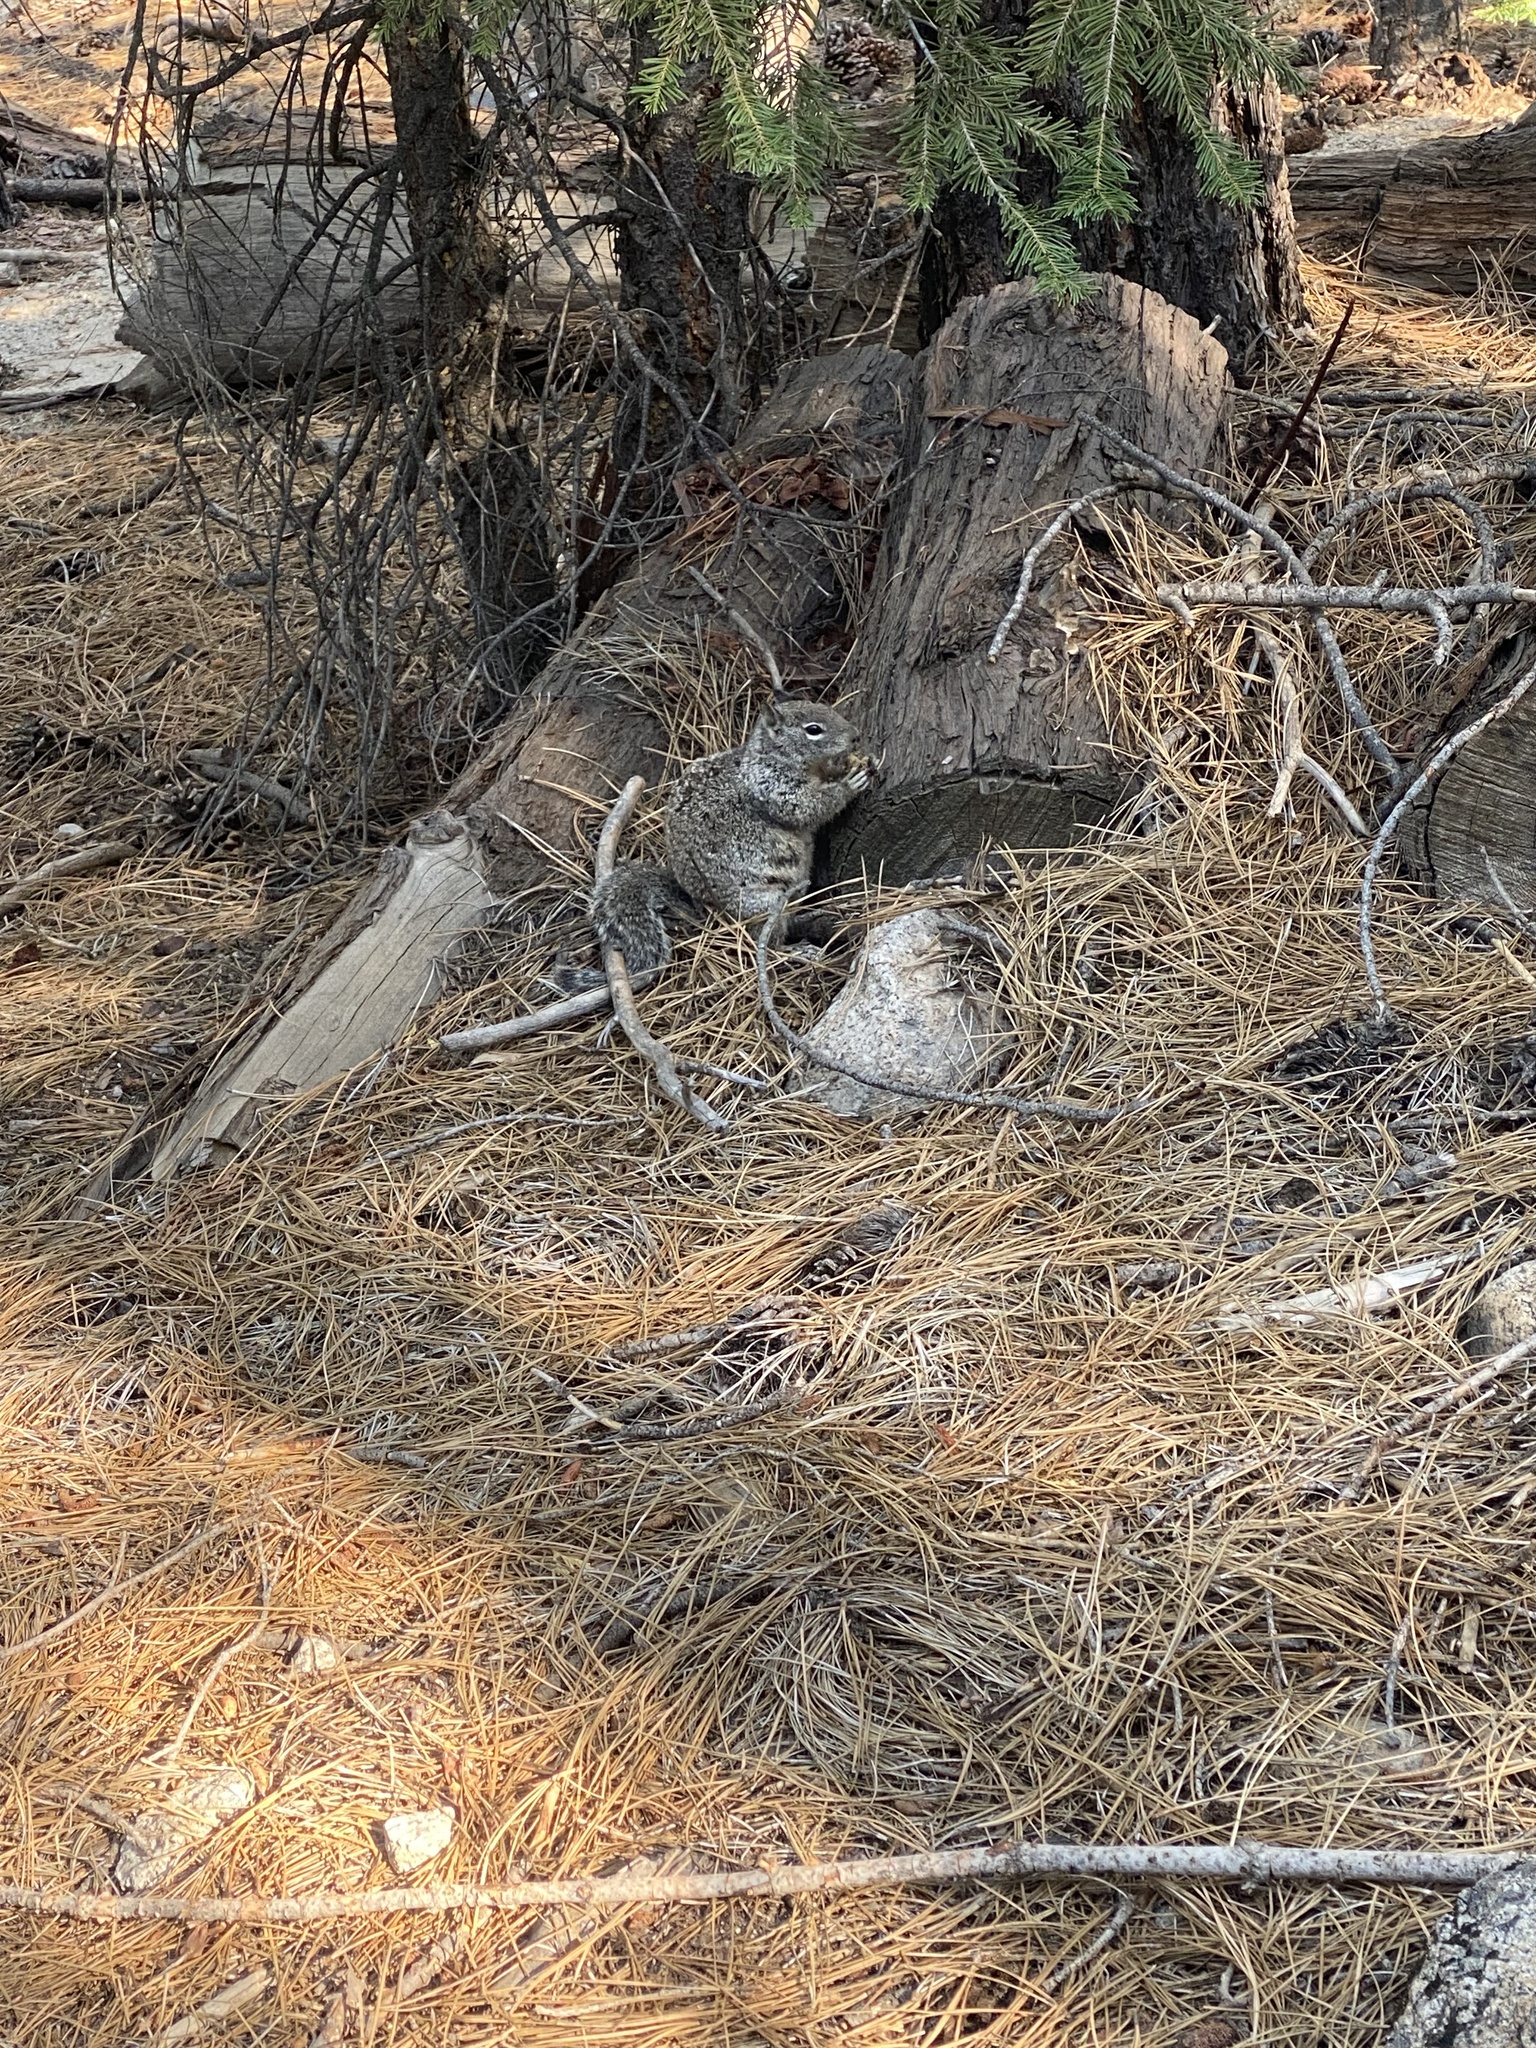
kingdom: Animalia
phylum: Chordata
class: Mammalia
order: Rodentia
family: Sciuridae
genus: Otospermophilus
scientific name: Otospermophilus beecheyi
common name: California ground squirrel
